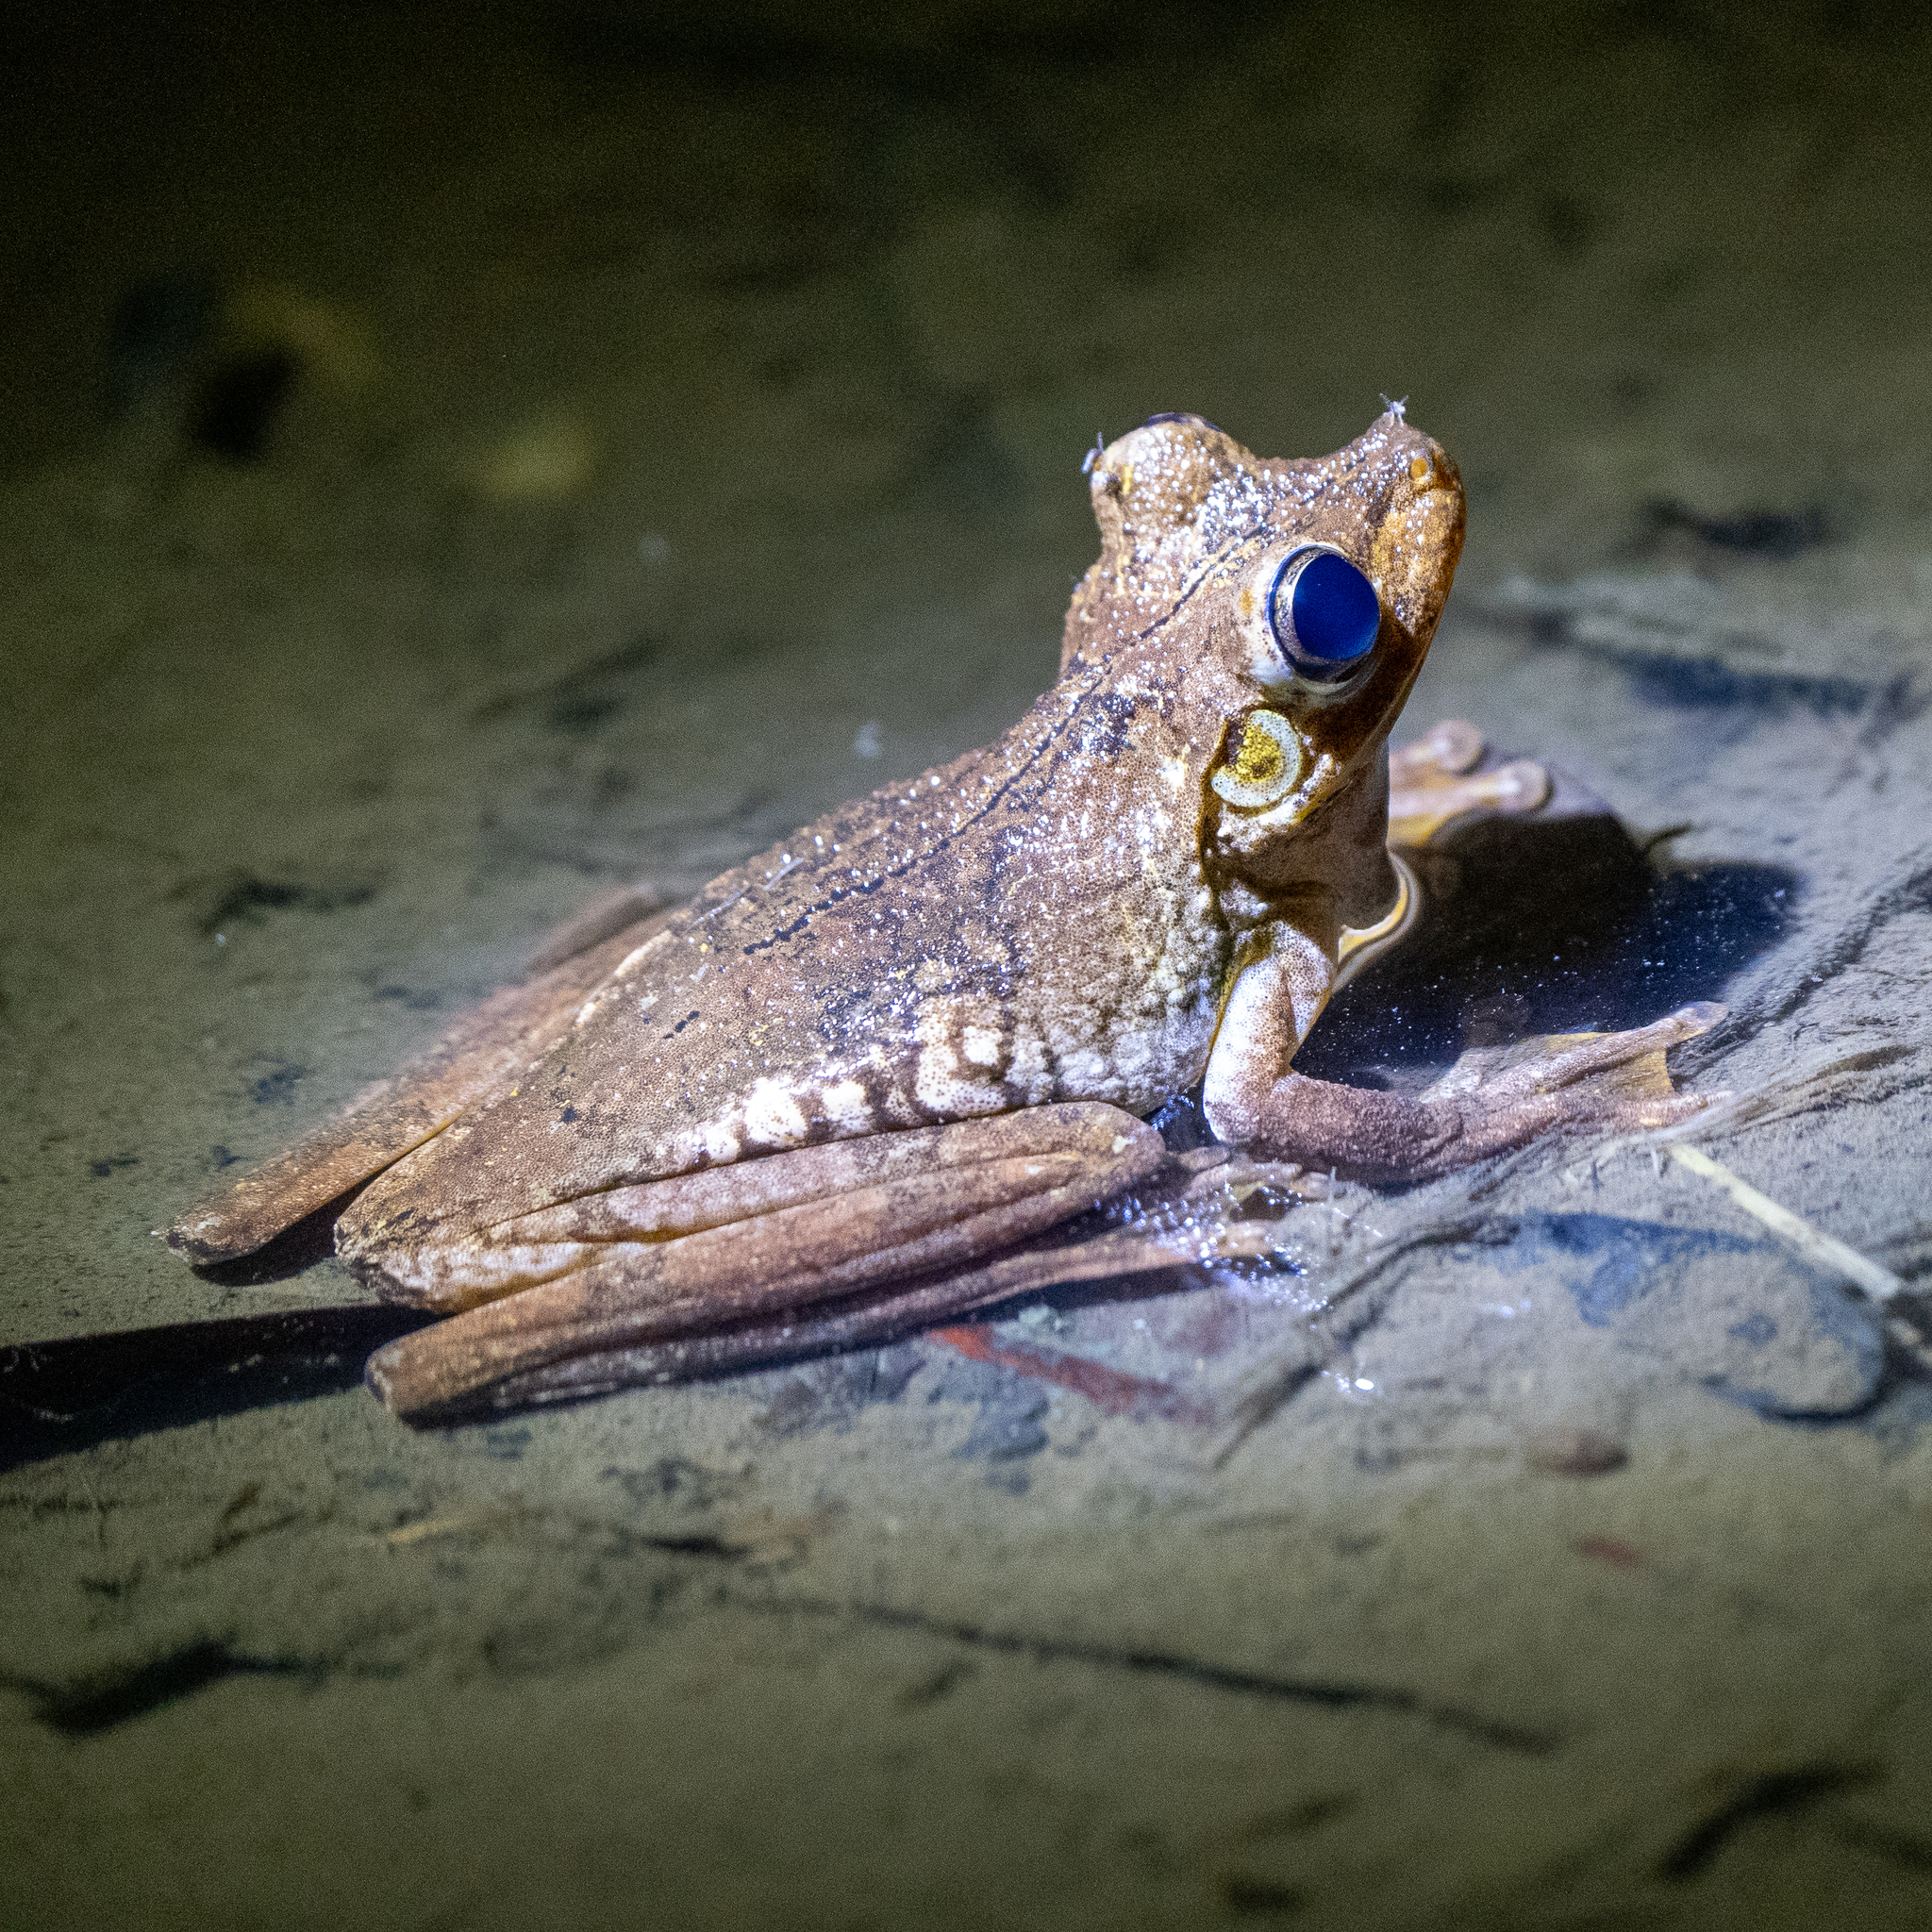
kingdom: Animalia
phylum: Chordata
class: Amphibia
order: Anura
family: Hylidae
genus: Boana
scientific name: Boana rosenbergi
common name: Rosenberg´s gladiator treefrog
